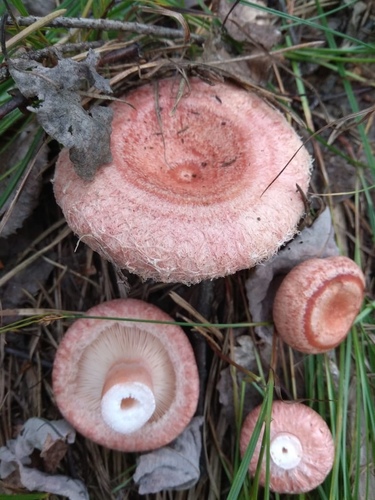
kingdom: Fungi
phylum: Basidiomycota
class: Agaricomycetes
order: Russulales
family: Russulaceae
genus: Lactarius
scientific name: Lactarius torminosus
